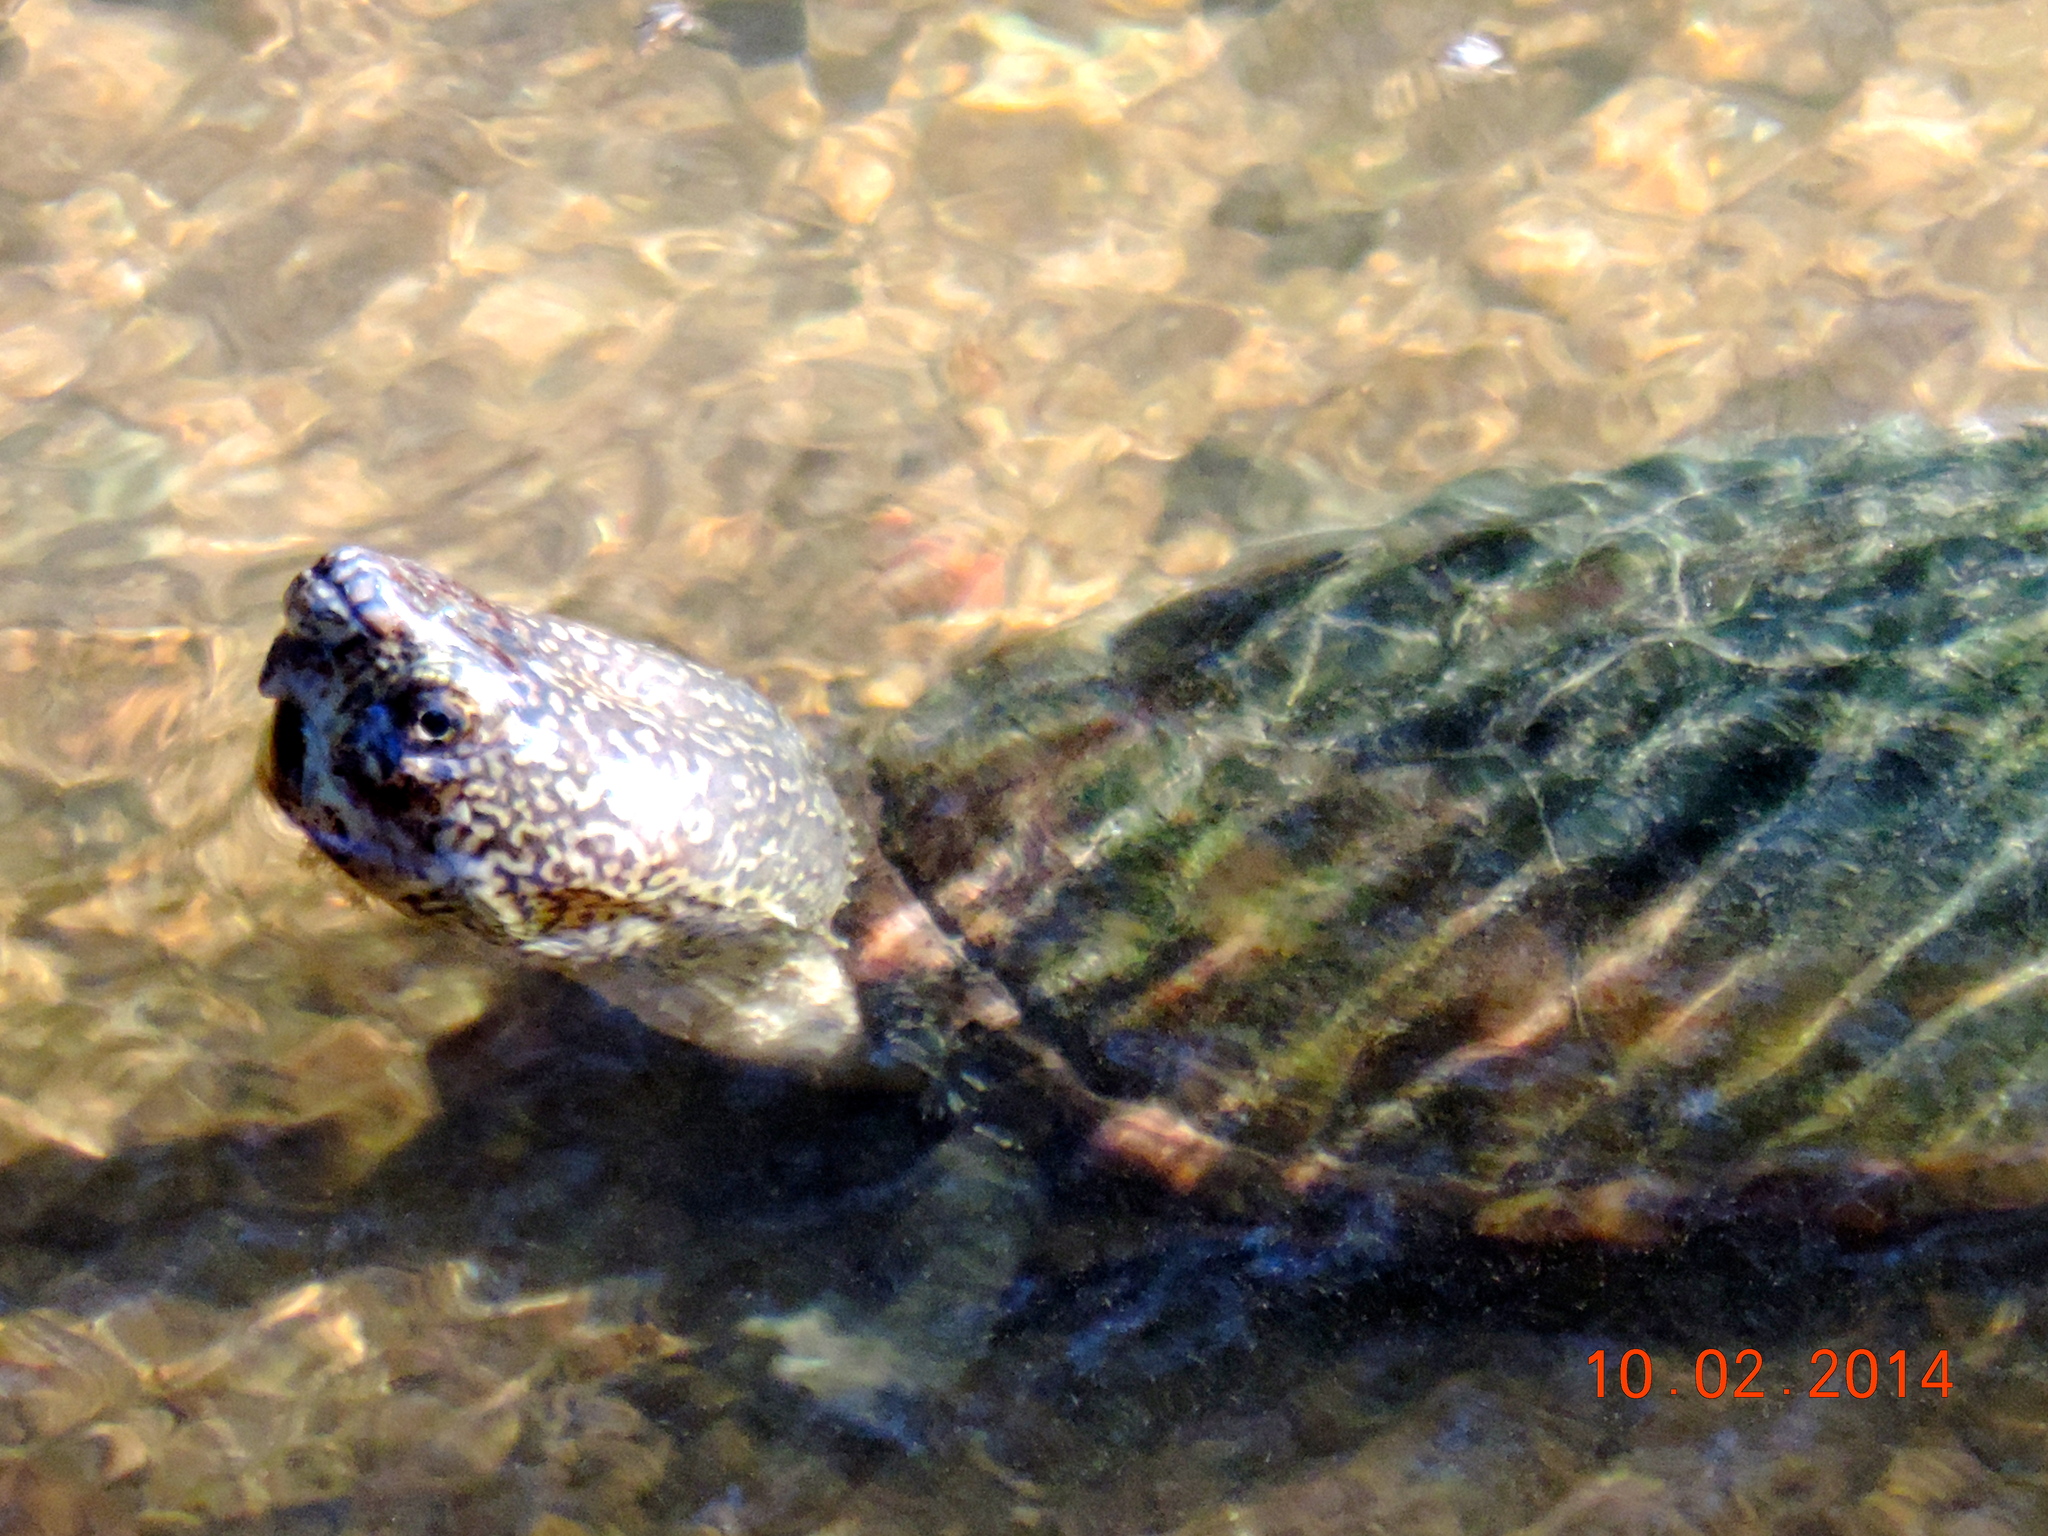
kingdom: Animalia
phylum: Chordata
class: Testudines
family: Kinosternidae
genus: Kinosternon
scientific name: Kinosternon integrum
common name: Mexican mud turtle
